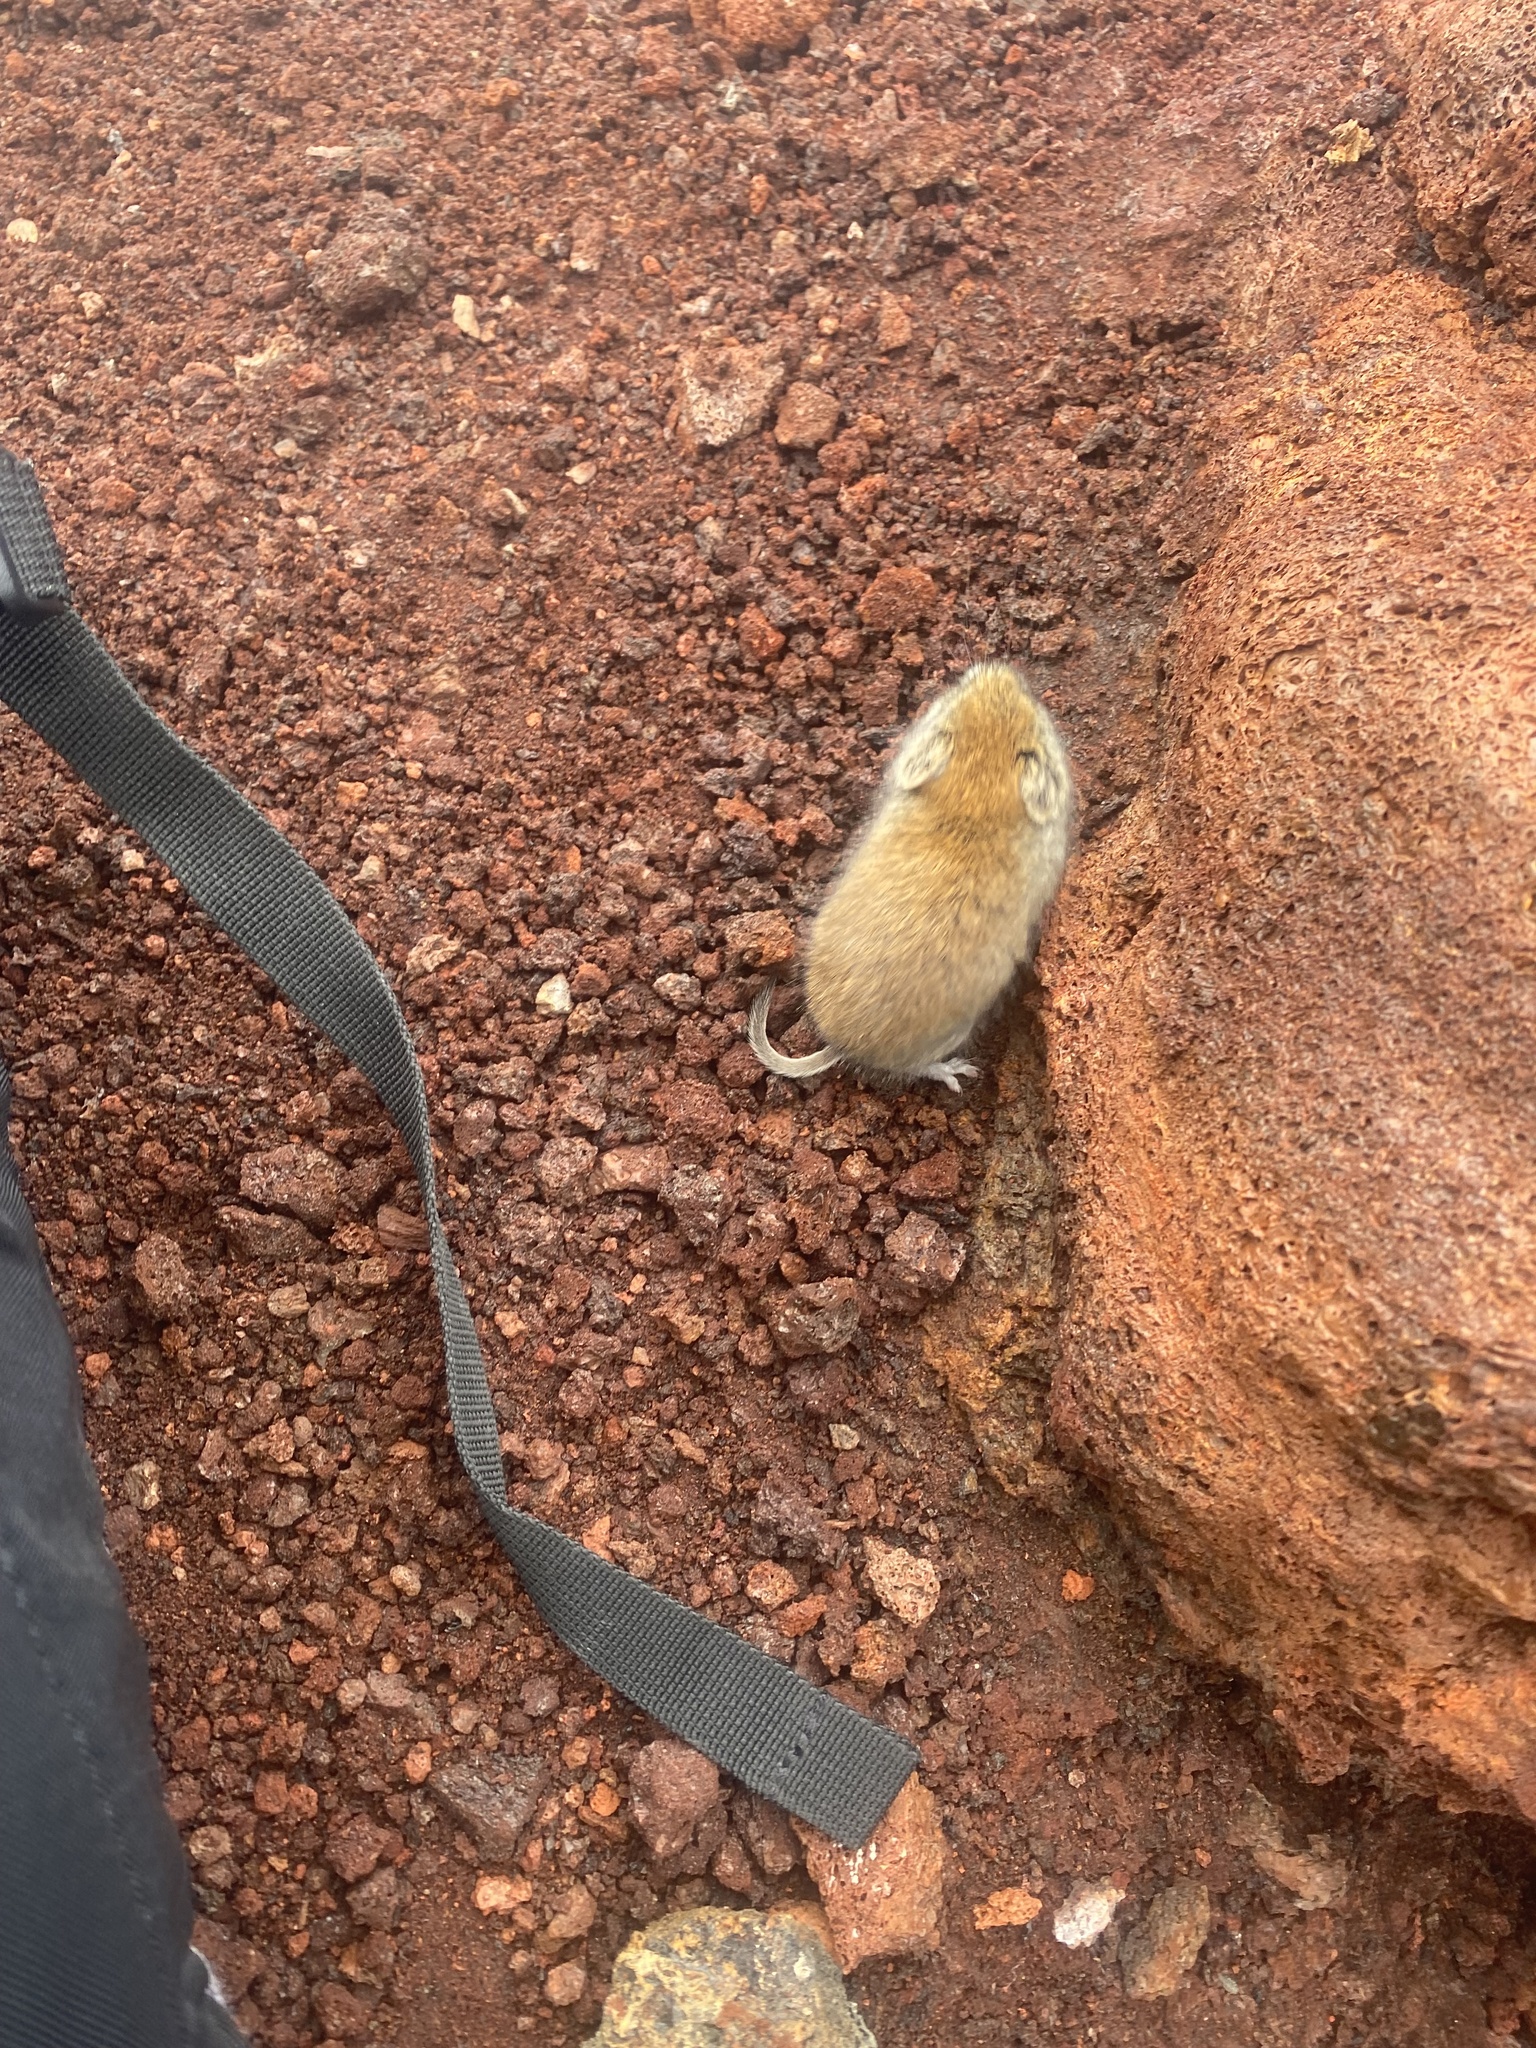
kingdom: Animalia
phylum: Chordata
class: Mammalia
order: Rodentia
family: Cricetidae
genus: Myodes
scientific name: Myodes rutilus
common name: Northern red-backed vole
